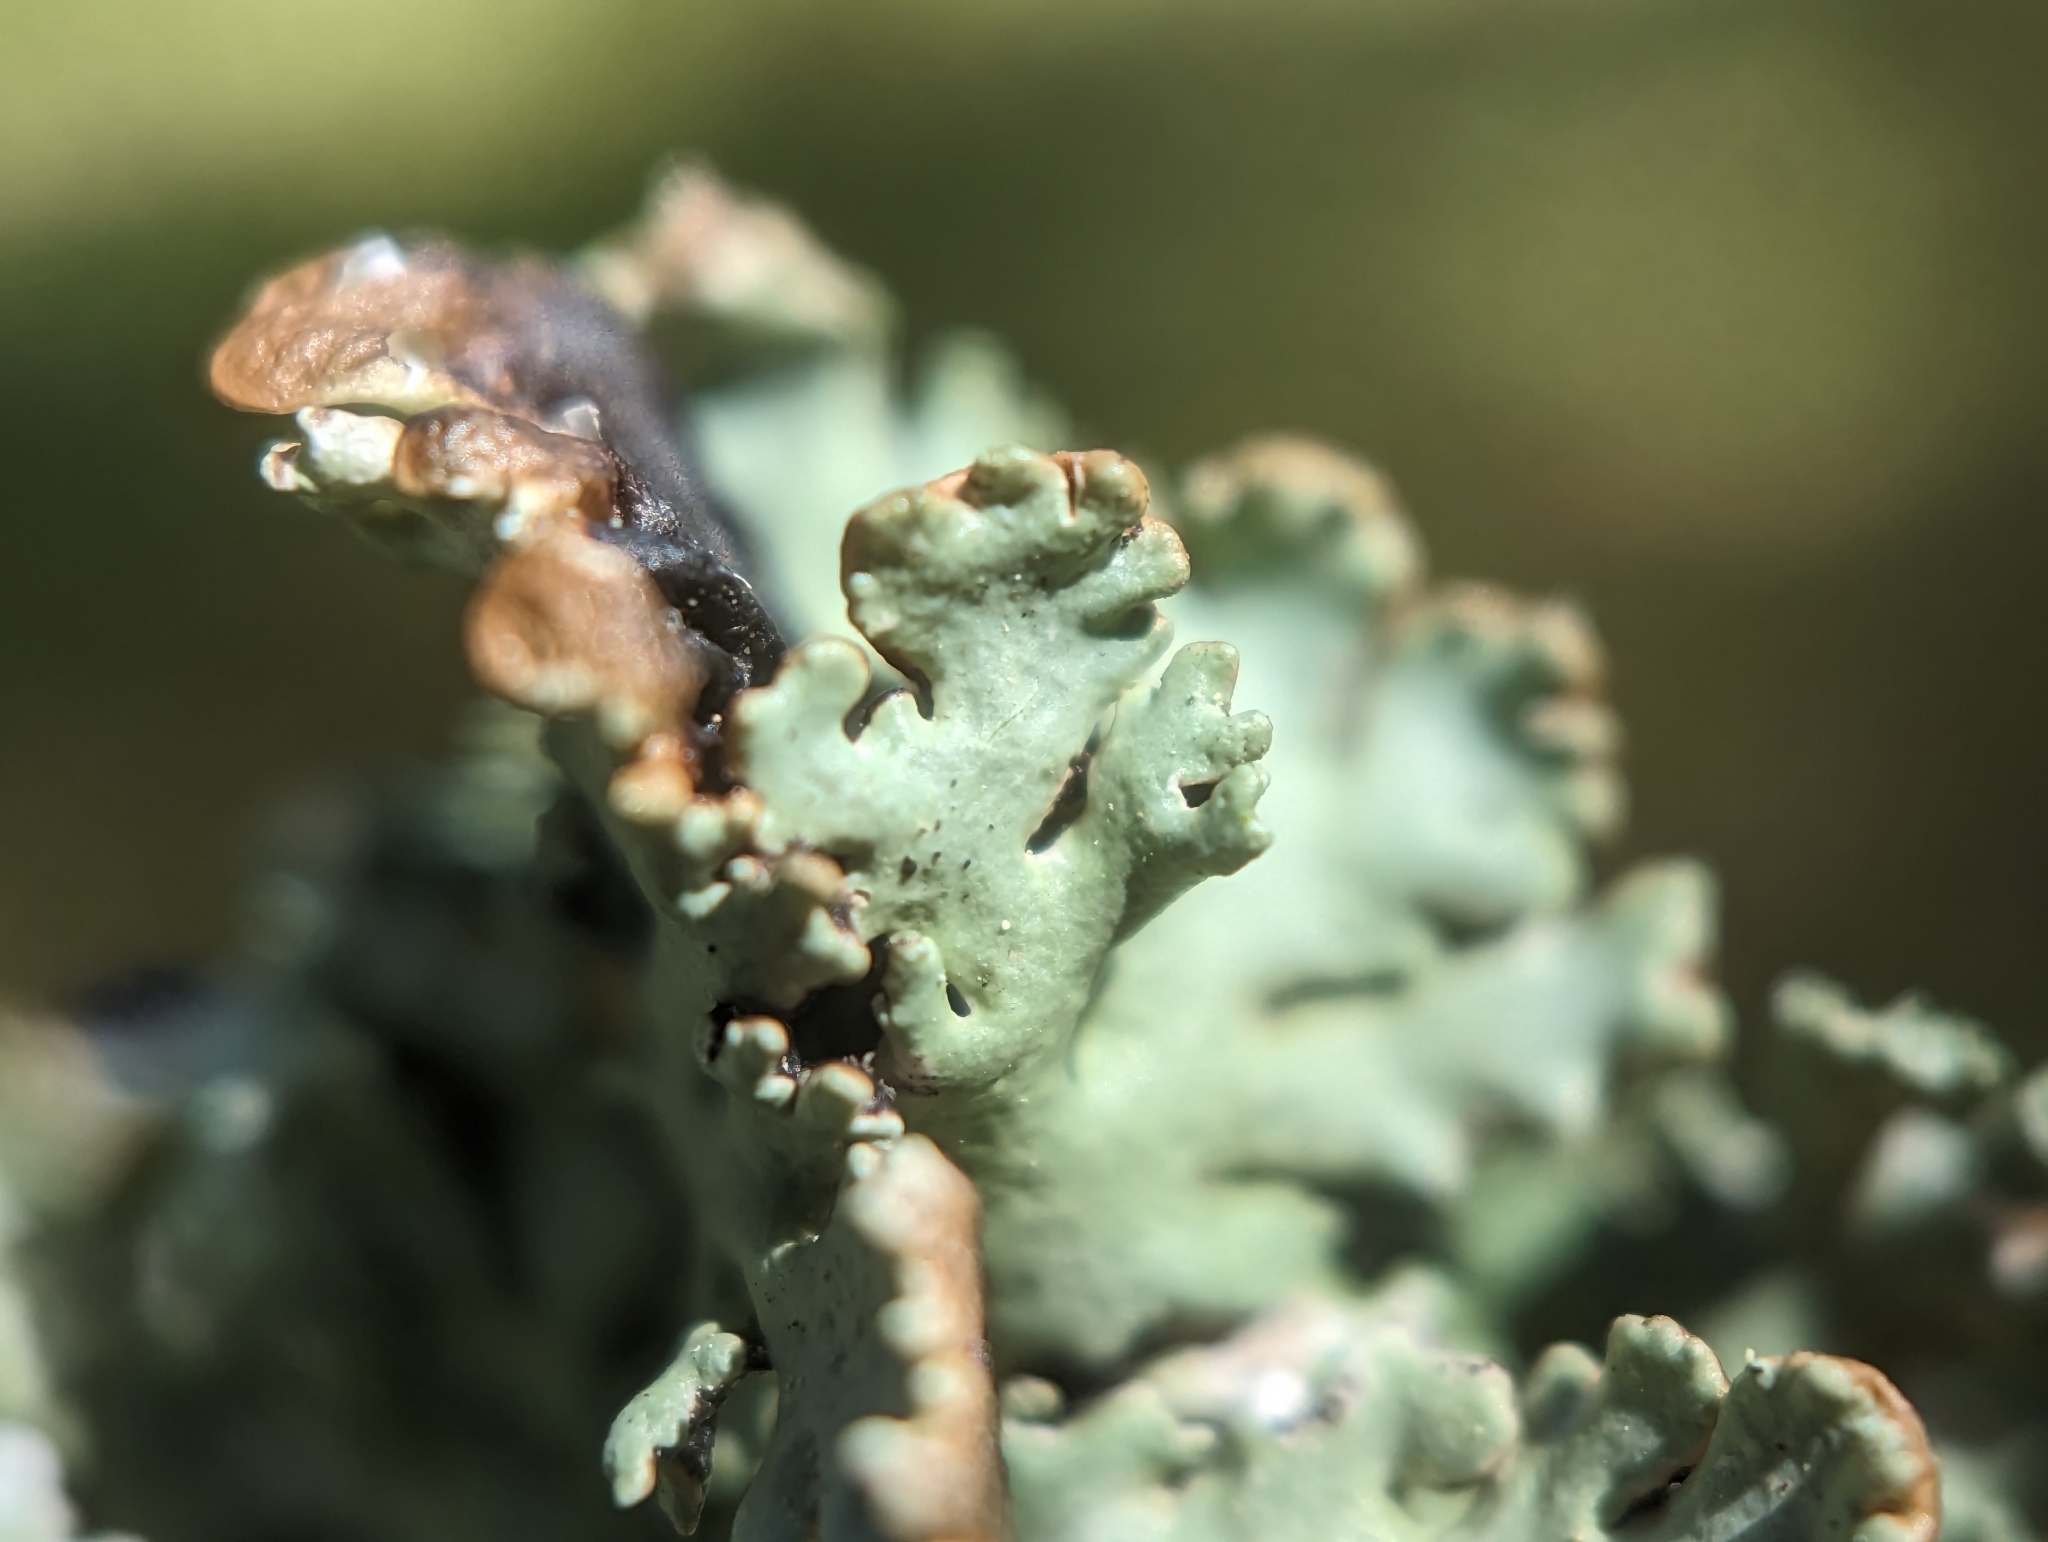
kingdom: Fungi
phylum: Ascomycota
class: Lecanoromycetes
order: Lecanorales
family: Parmeliaceae
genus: Hypogymnia
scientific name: Hypogymnia physodes
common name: Dark crottle
